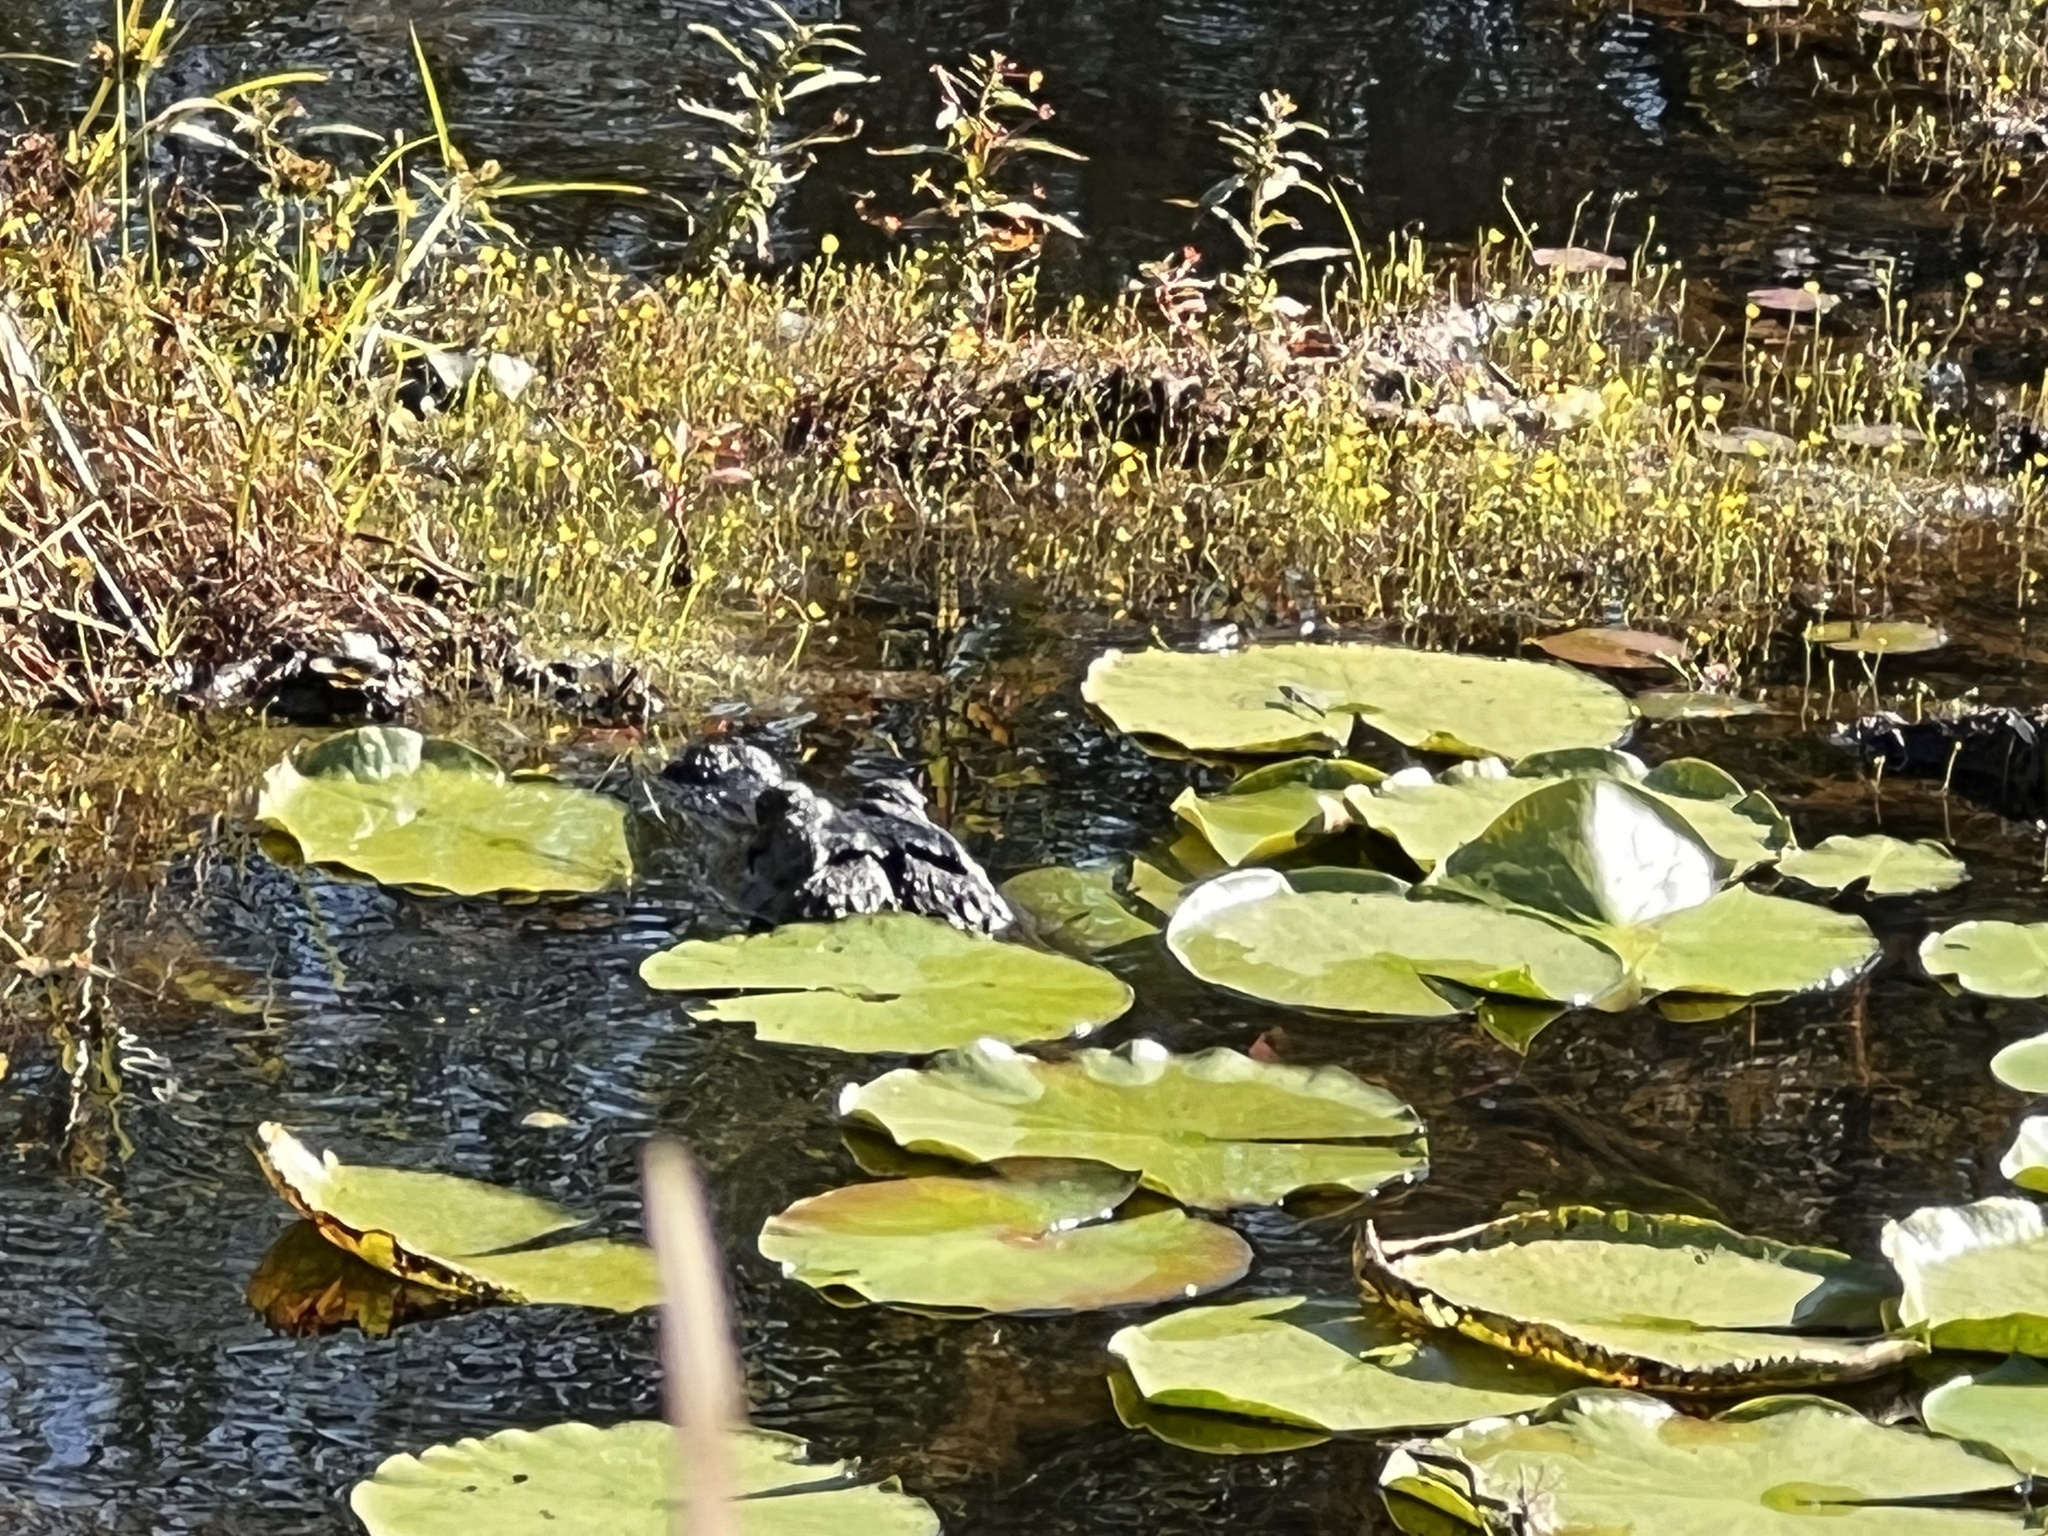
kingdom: Animalia
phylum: Chordata
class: Crocodylia
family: Alligatoridae
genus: Alligator
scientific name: Alligator mississippiensis
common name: American alligator
